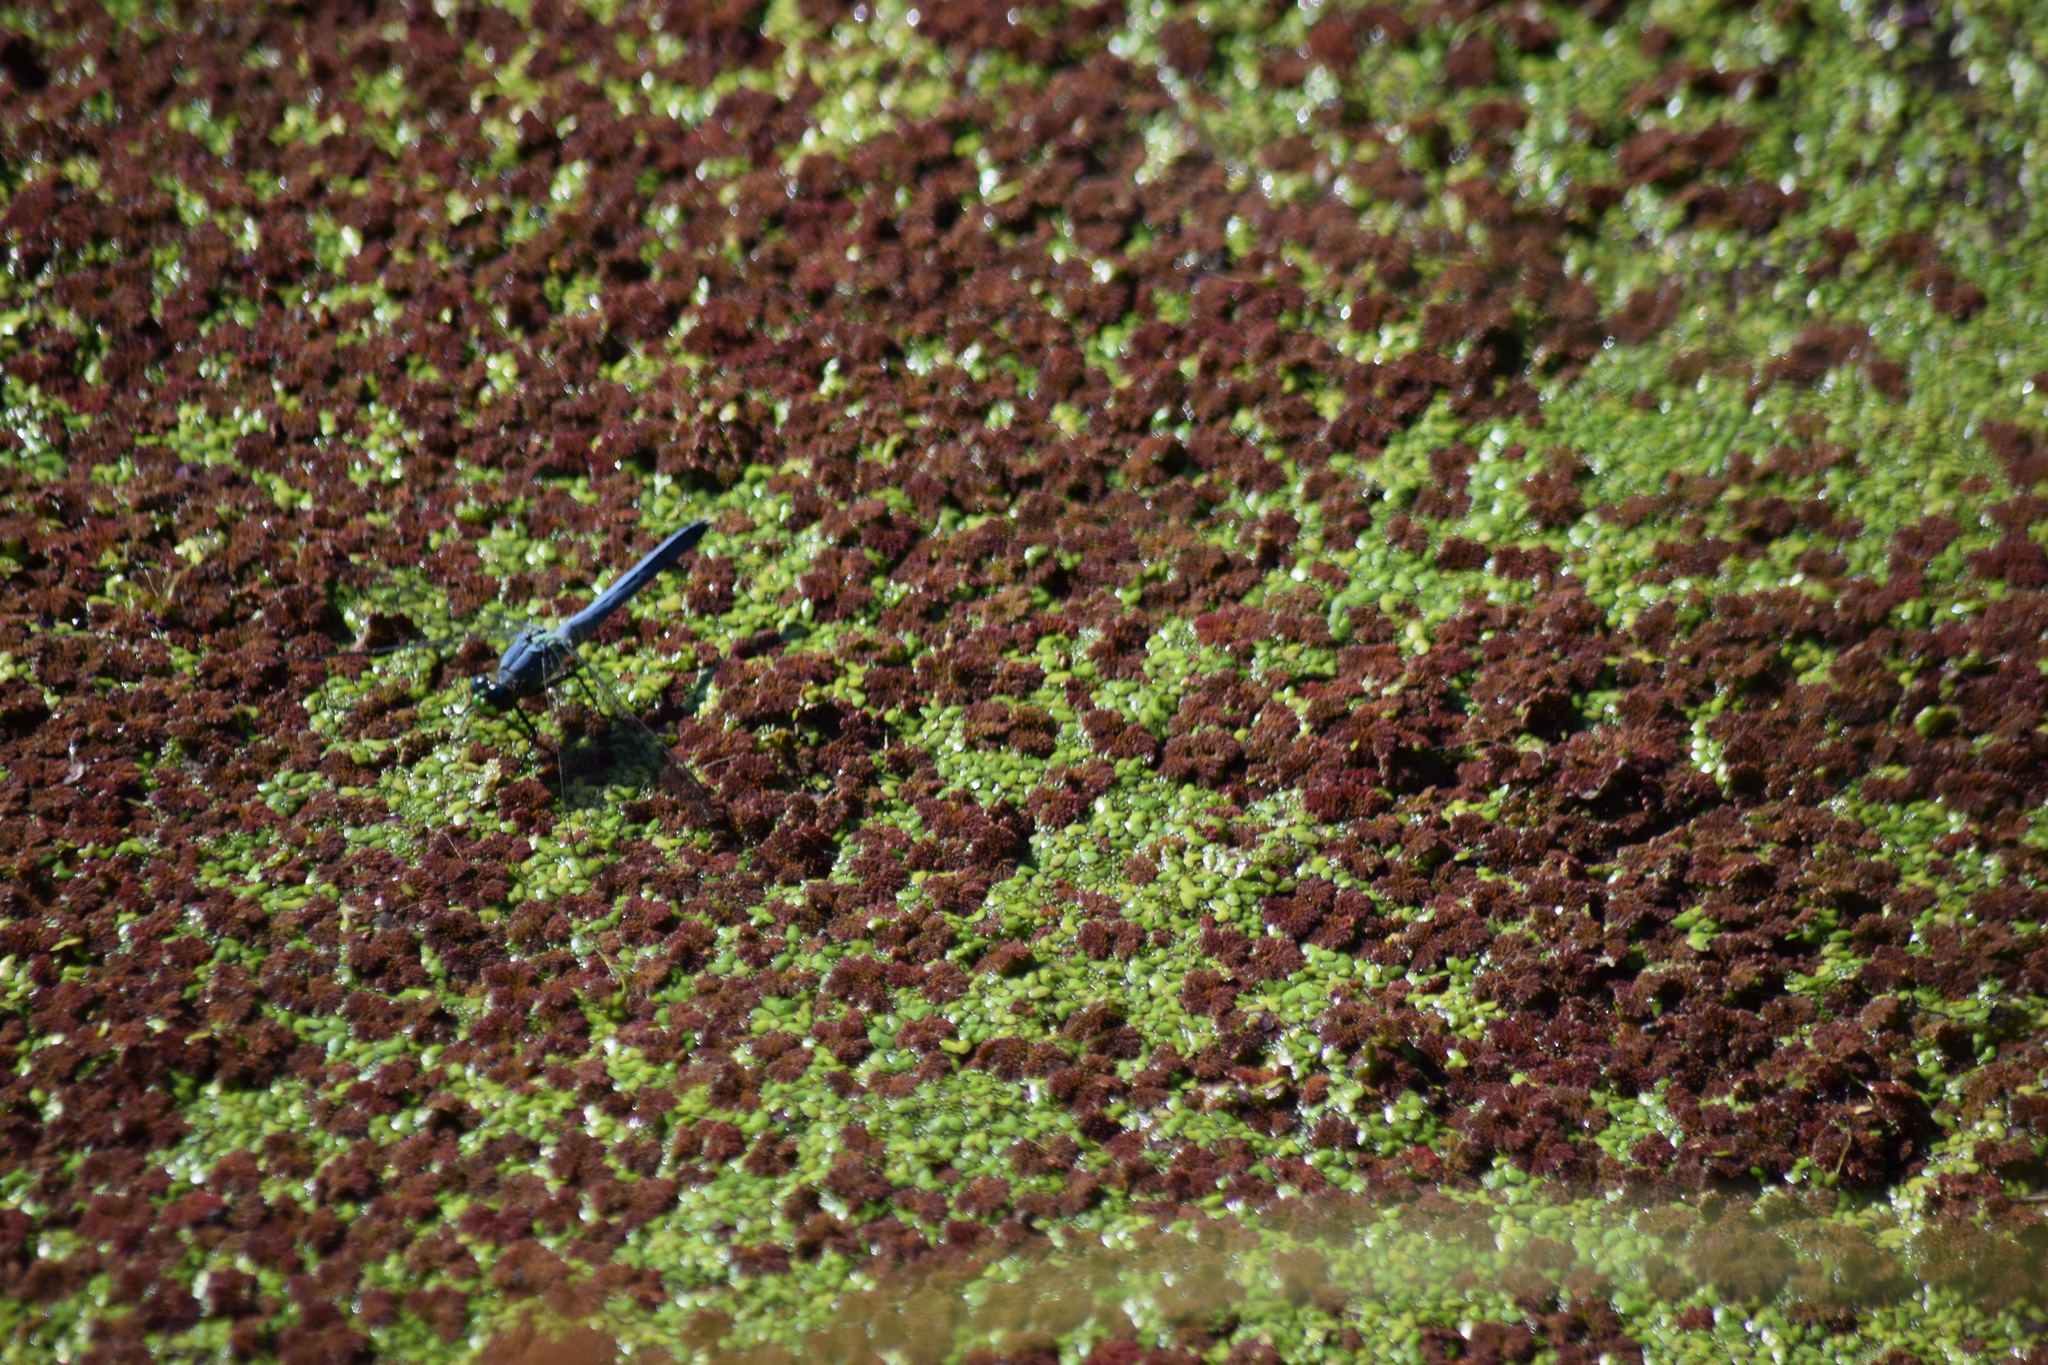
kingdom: Animalia
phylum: Arthropoda
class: Insecta
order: Odonata
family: Libellulidae
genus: Erythemis
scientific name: Erythemis simplicicollis
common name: Eastern pondhawk
